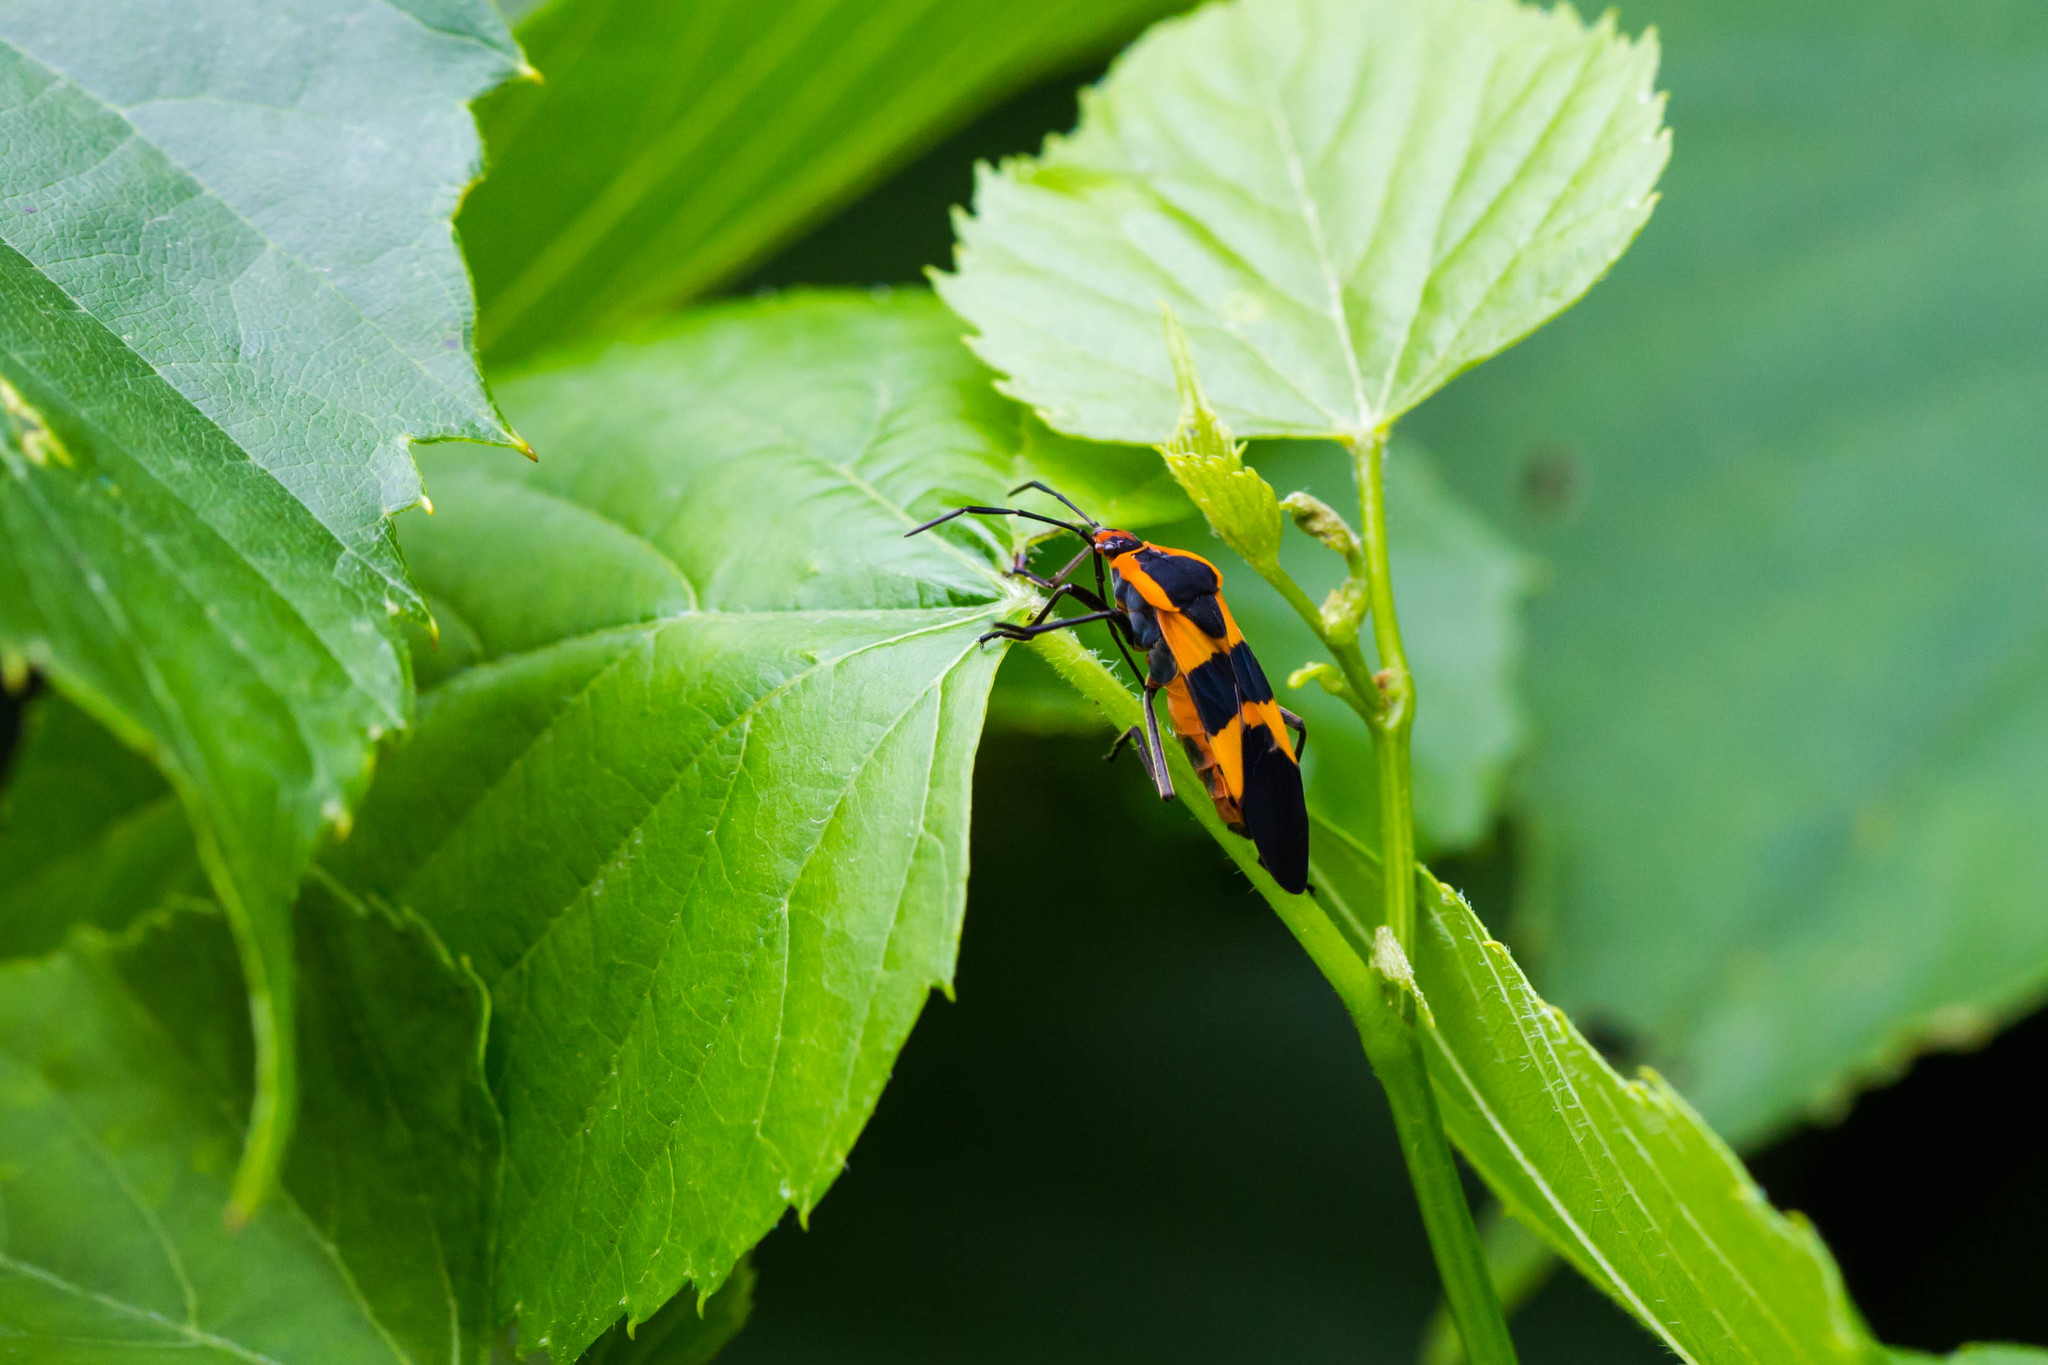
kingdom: Animalia
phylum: Arthropoda
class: Insecta
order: Hemiptera
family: Lygaeidae
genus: Oncopeltus
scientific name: Oncopeltus fasciatus
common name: Large milkweed bug
